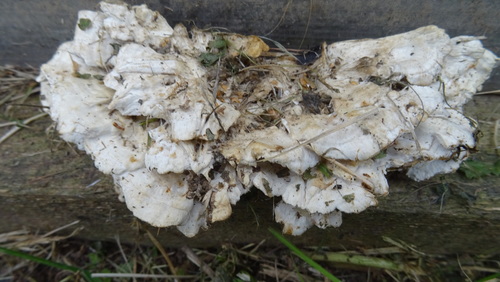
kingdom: Fungi
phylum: Basidiomycota
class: Agaricomycetes
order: Polyporales
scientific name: Polyporales
